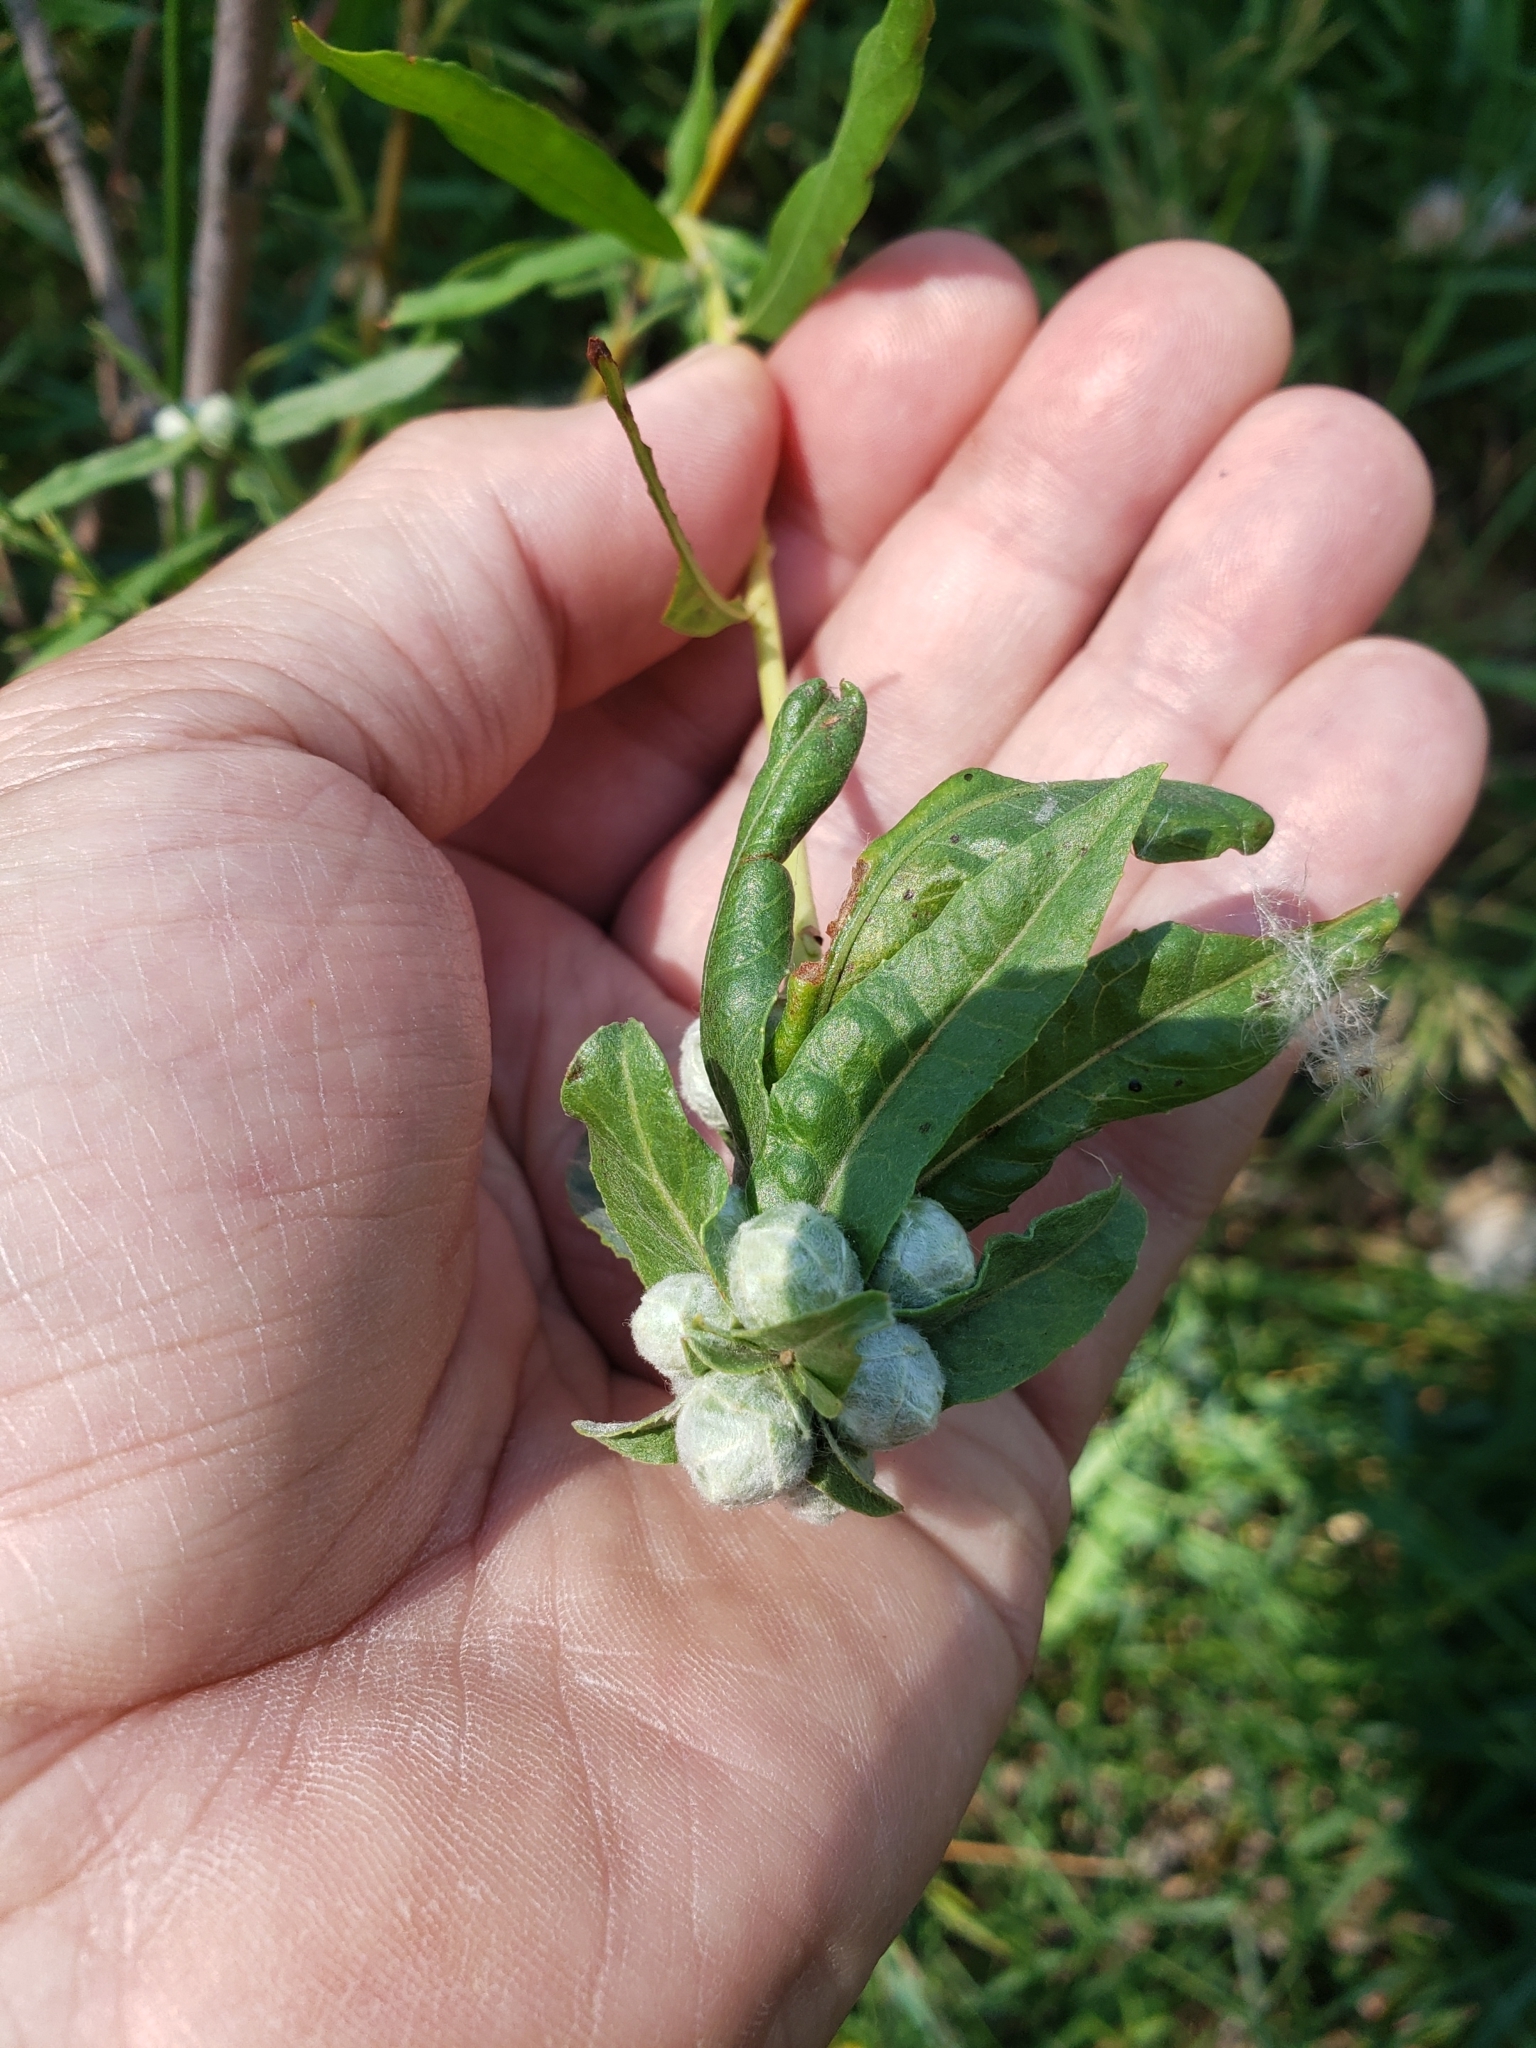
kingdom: Animalia
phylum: Arthropoda
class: Insecta
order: Diptera
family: Cecidomyiidae
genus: Rabdophaga
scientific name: Rabdophaga strobiloides
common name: Willow pinecone gall midge
